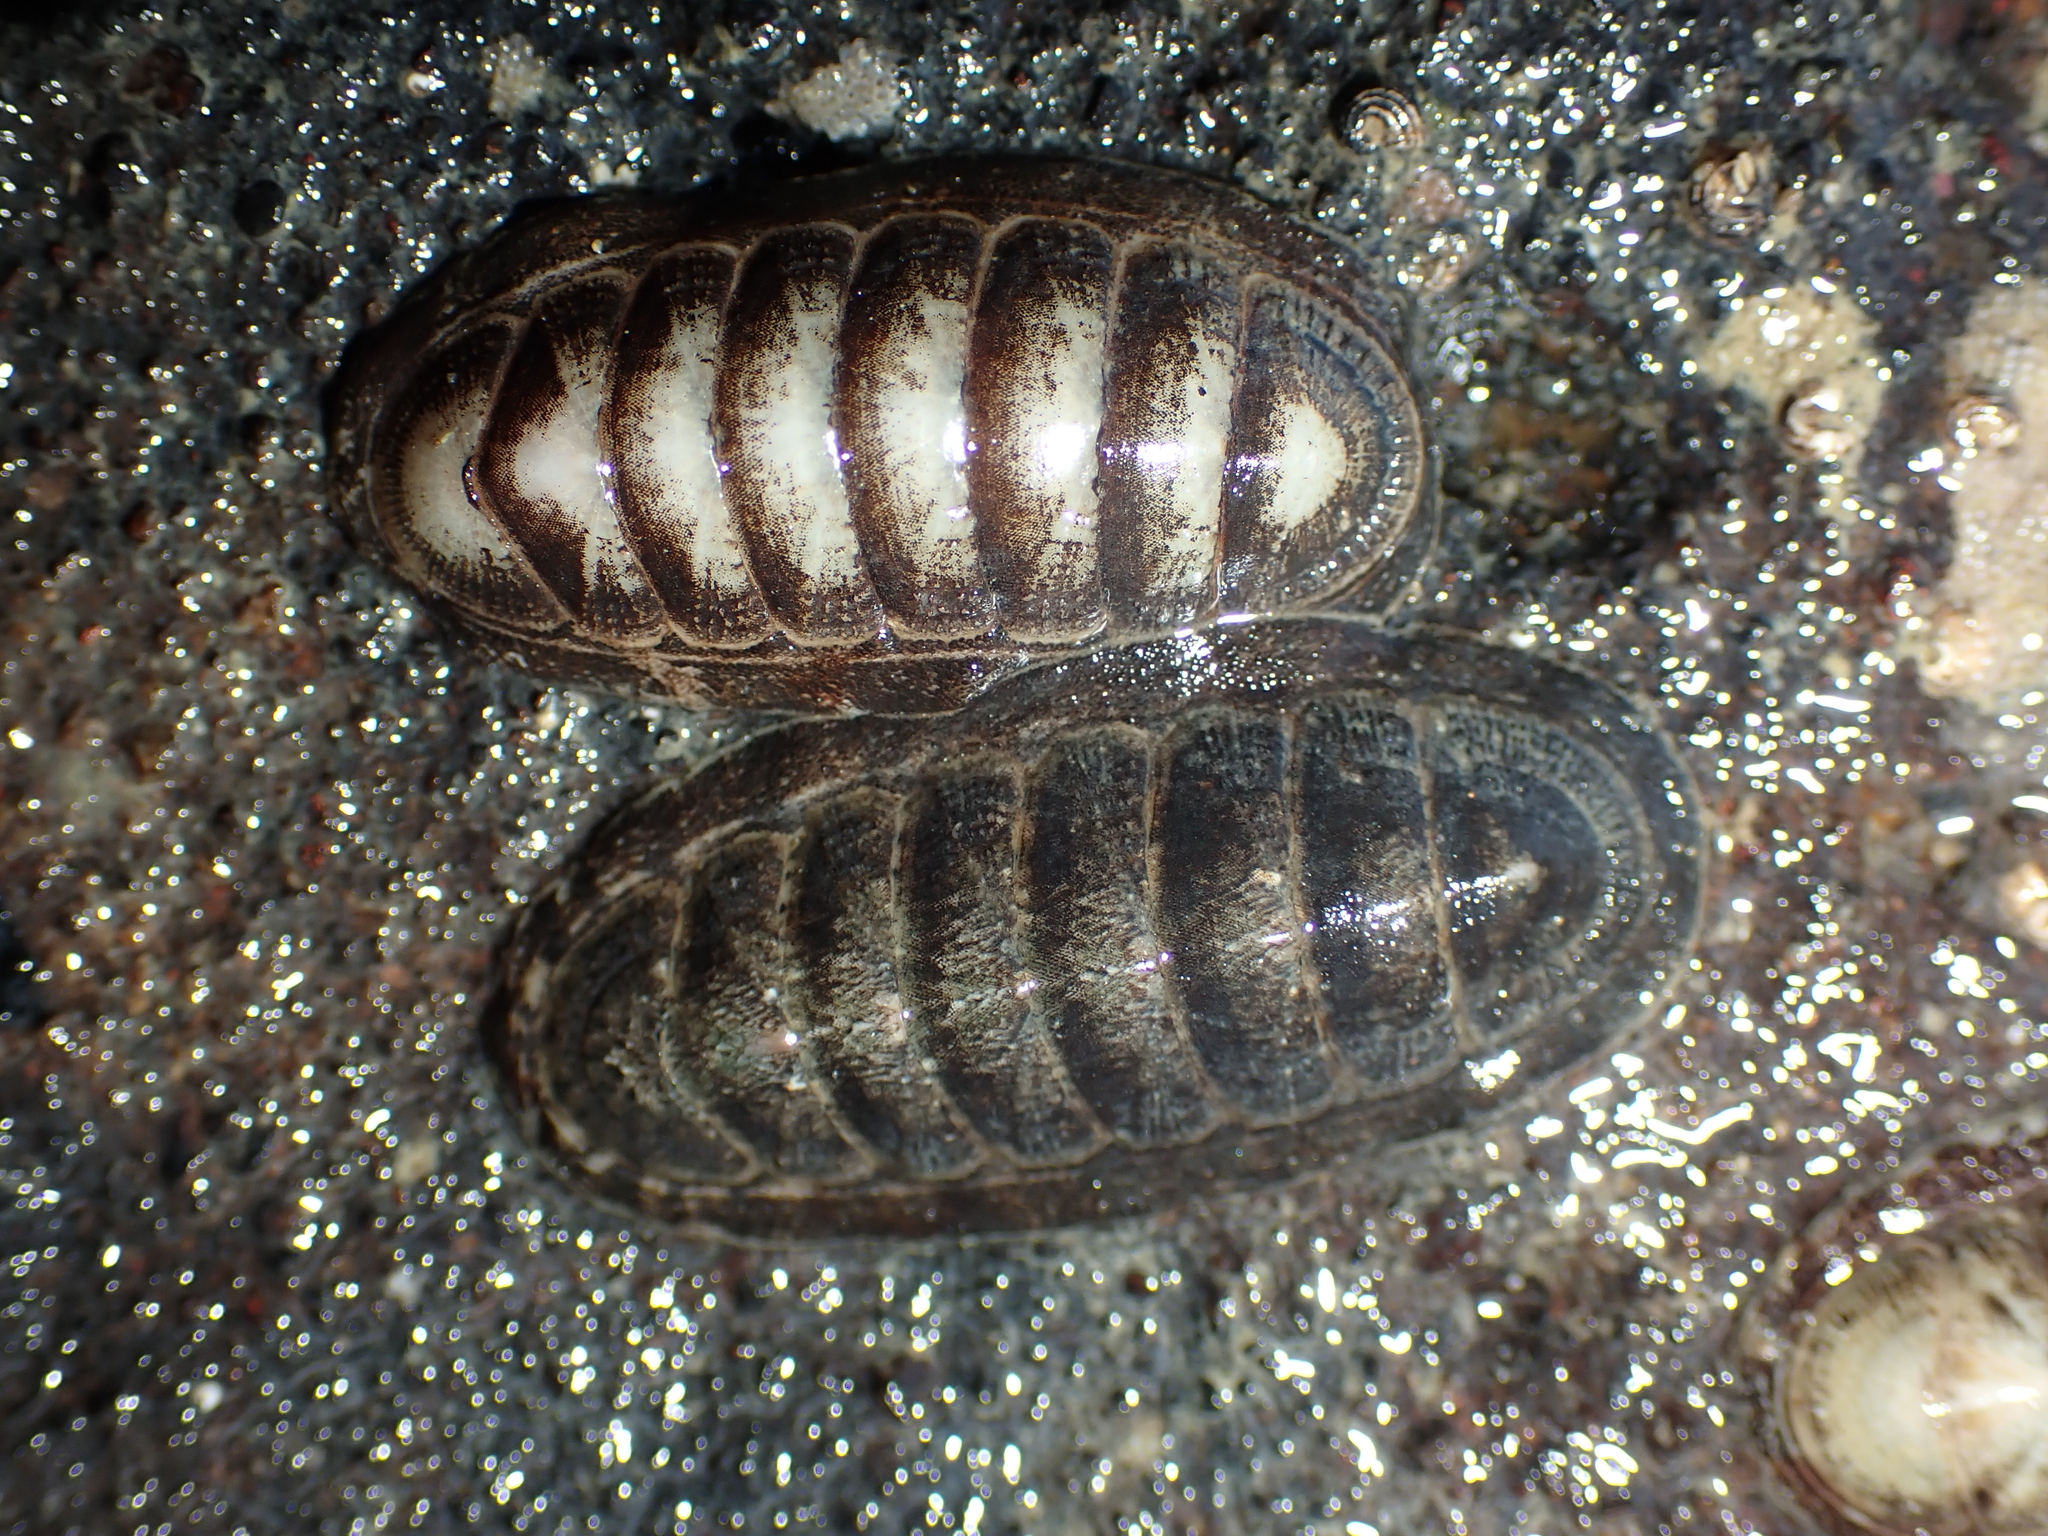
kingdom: Animalia
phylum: Mollusca
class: Polyplacophora
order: Chitonida
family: Ischnochitonidae
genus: Ischnochiton
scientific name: Ischnochiton maorianus
